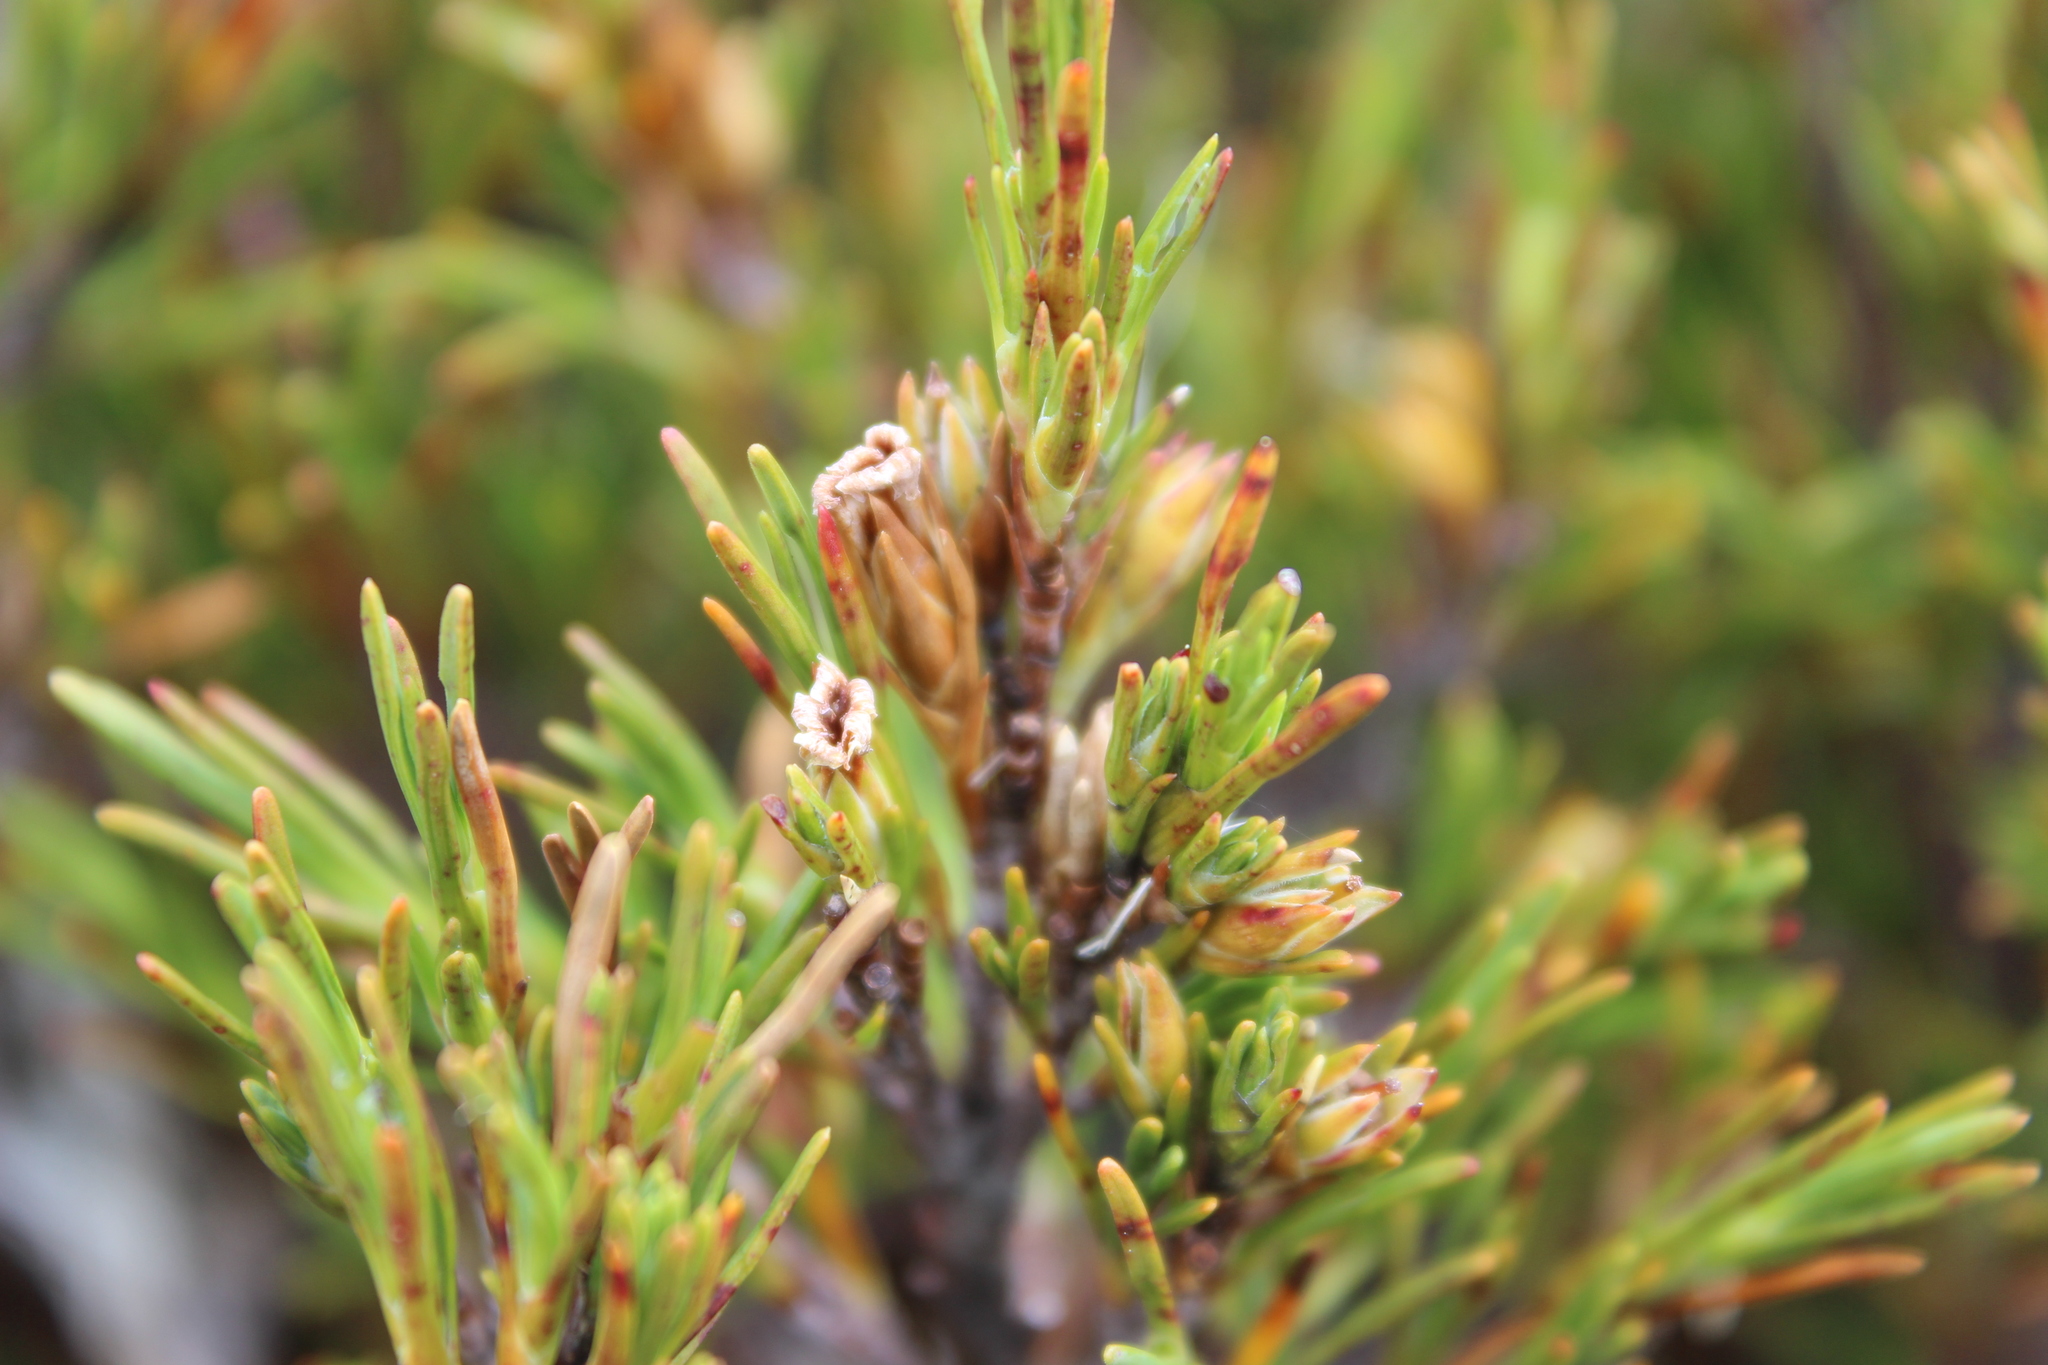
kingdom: Plantae
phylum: Tracheophyta
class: Magnoliopsida
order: Ericales
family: Ericaceae
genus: Dracophyllum
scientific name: Dracophyllum rosmarinifolium
